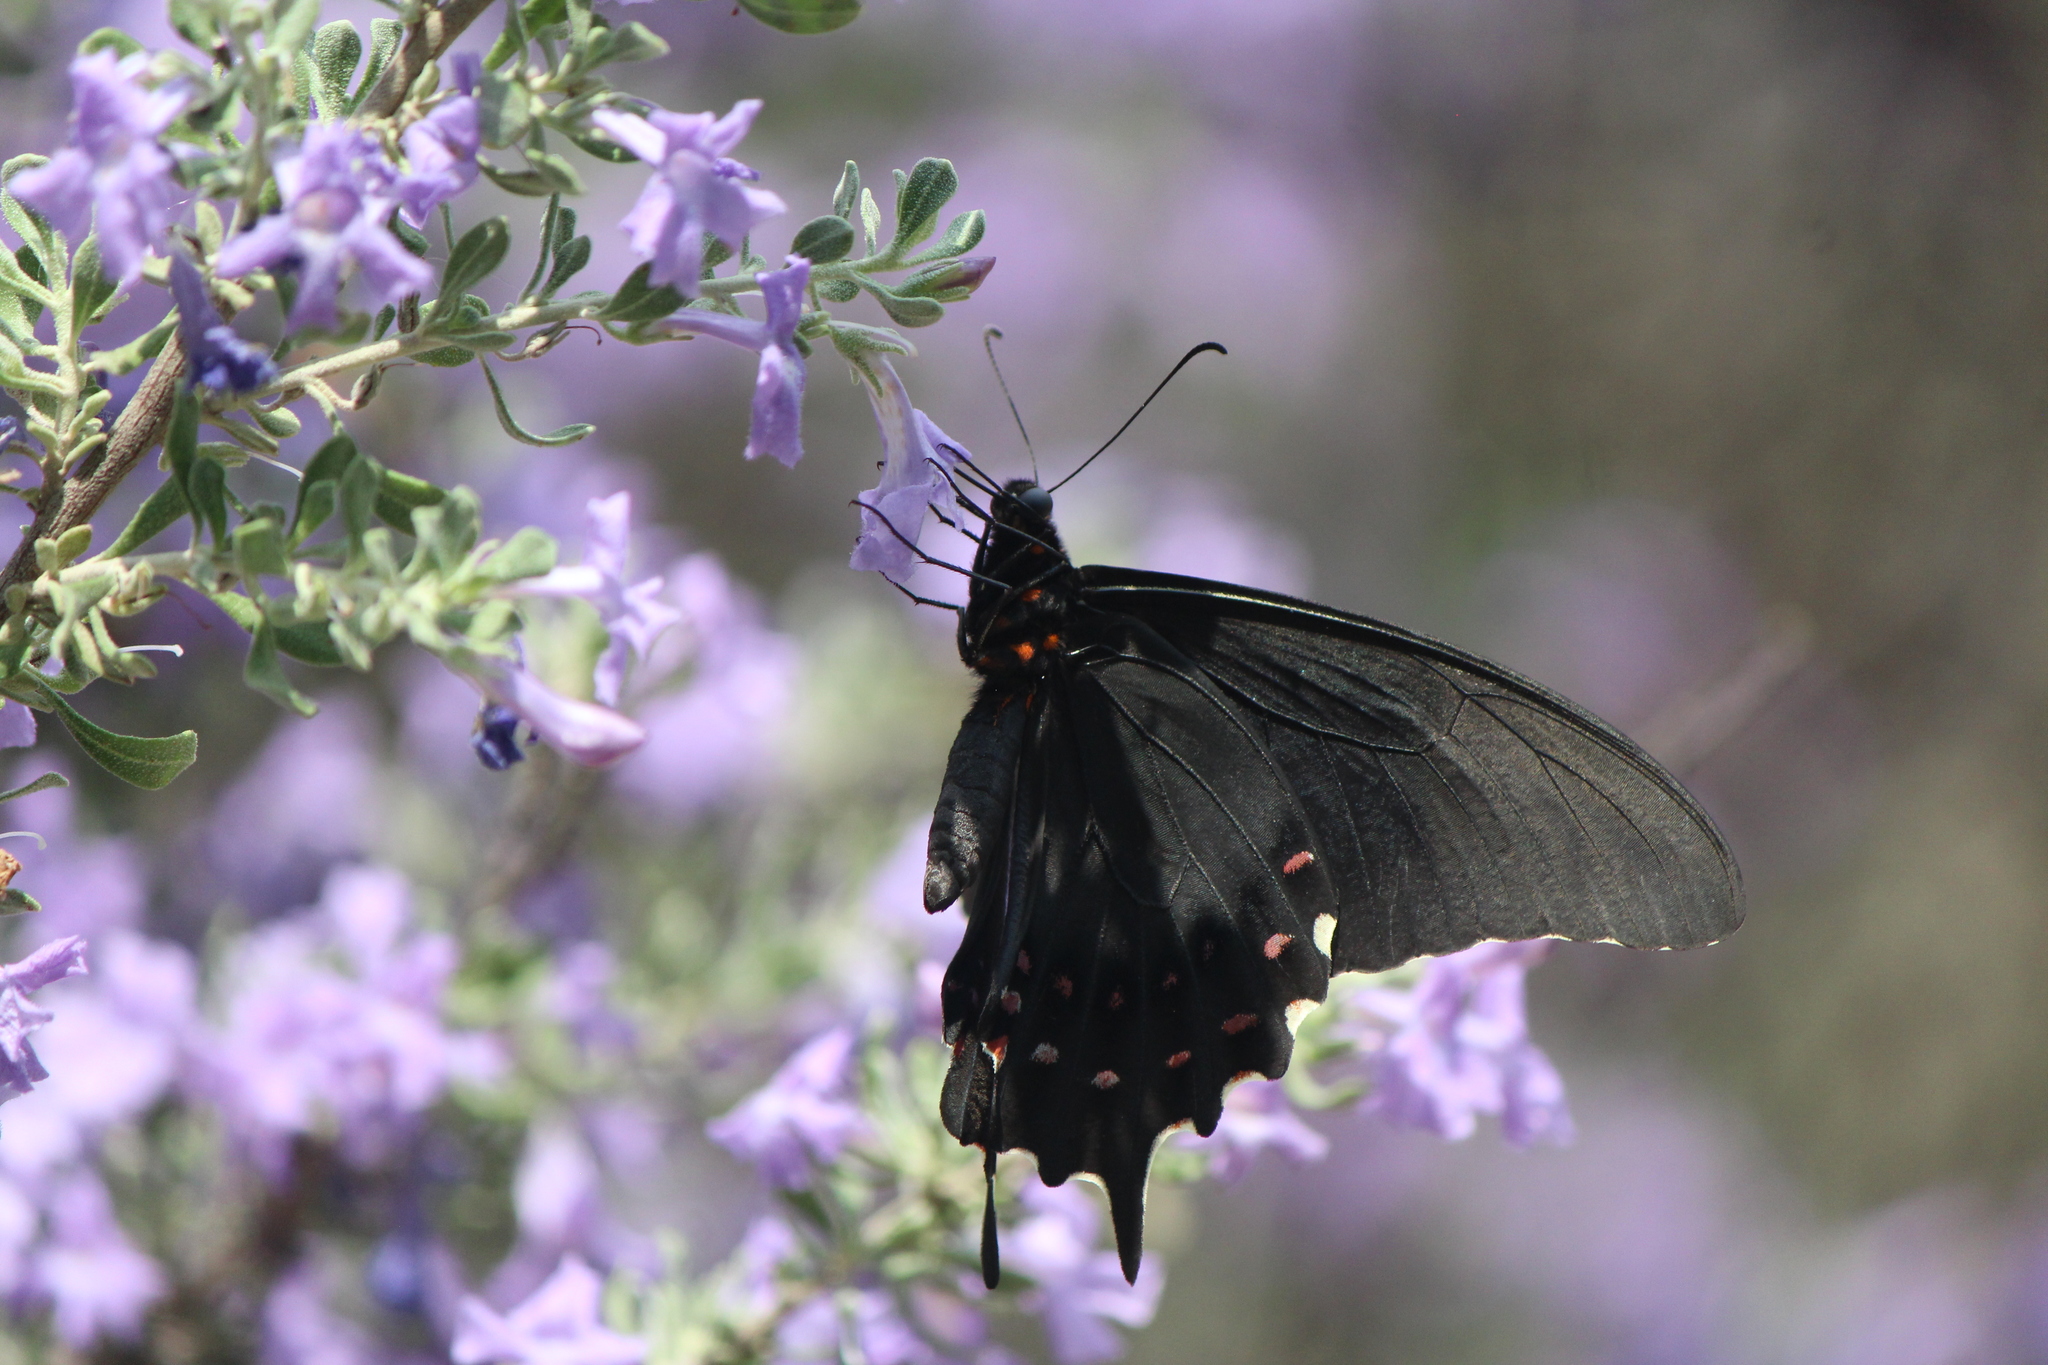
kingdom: Animalia
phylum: Arthropoda
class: Insecta
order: Lepidoptera
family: Papilionidae
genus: Heraclides
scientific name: Heraclides rogeri
